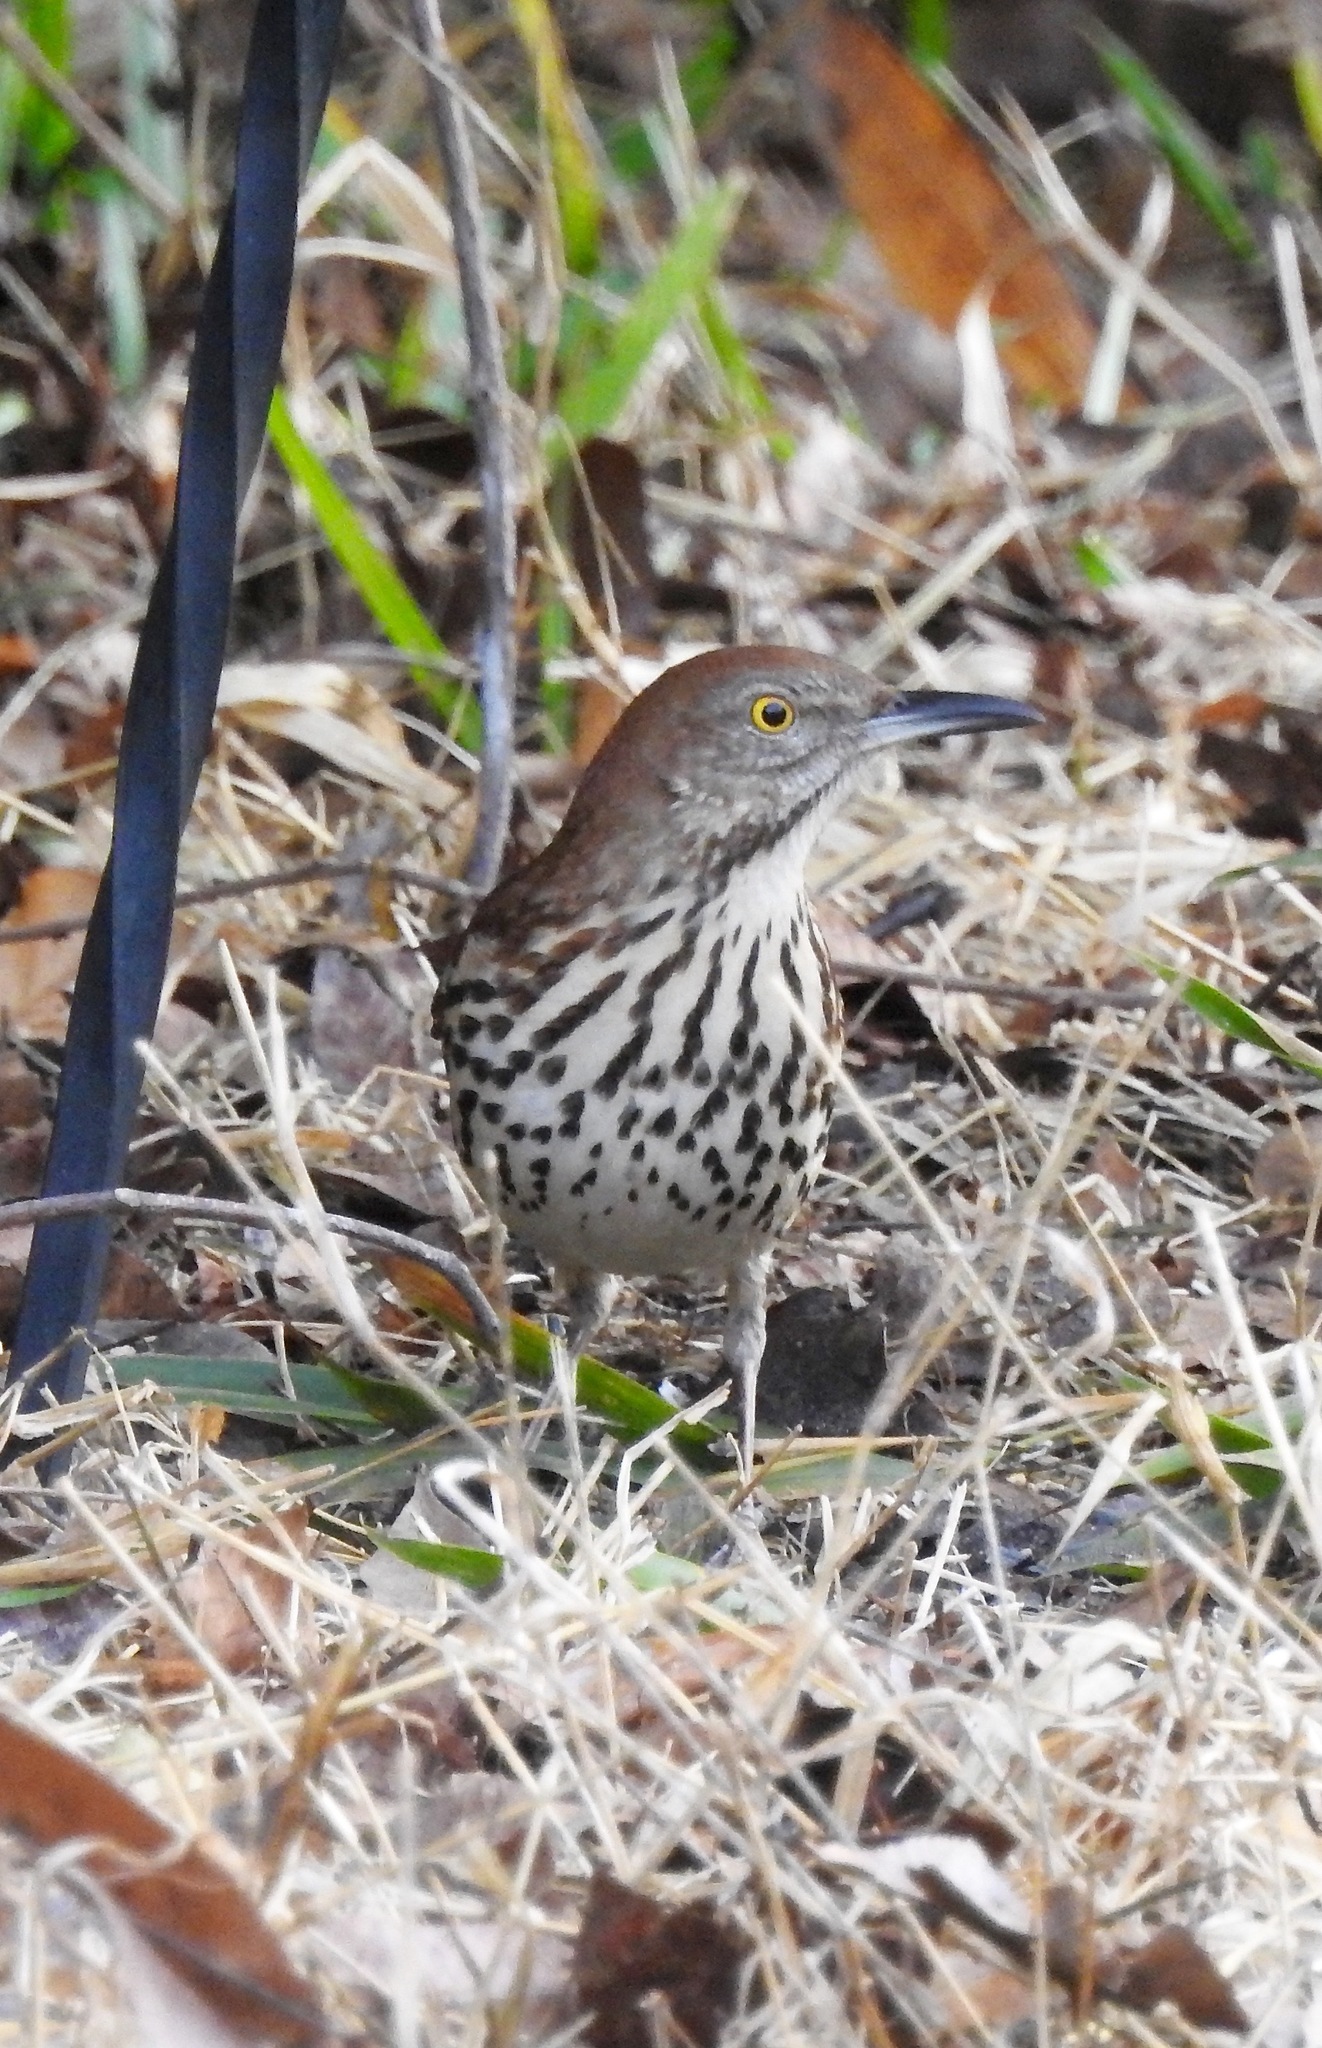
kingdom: Animalia
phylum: Chordata
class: Aves
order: Passeriformes
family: Mimidae
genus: Toxostoma
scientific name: Toxostoma rufum
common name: Brown thrasher
